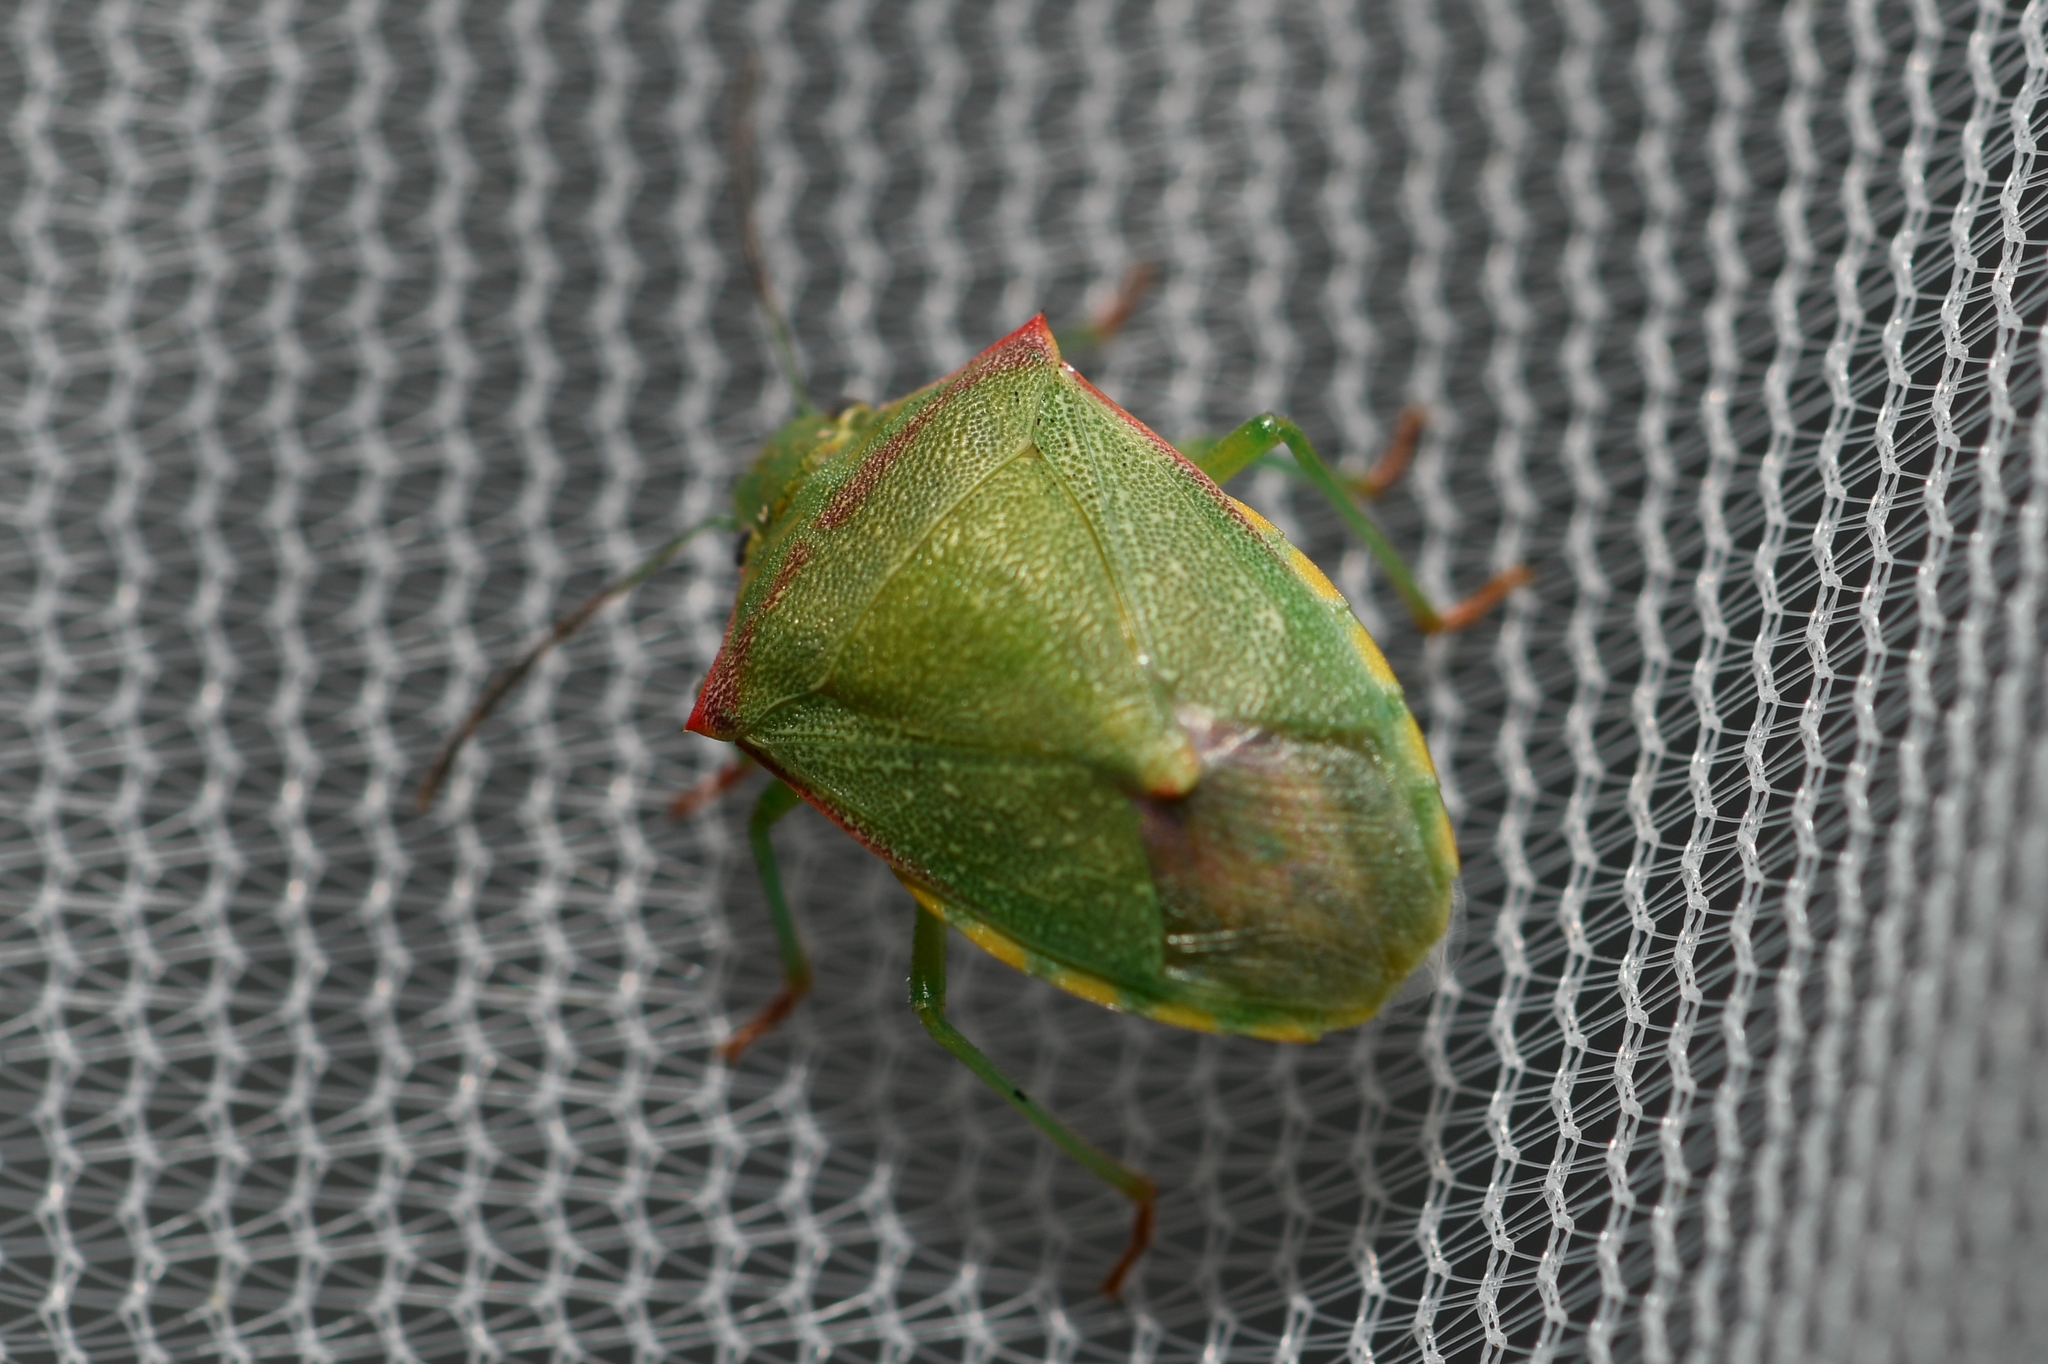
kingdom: Animalia
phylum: Arthropoda
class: Insecta
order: Hemiptera
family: Pentatomidae
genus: Thyanta
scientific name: Thyanta custator
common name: Stink bug
